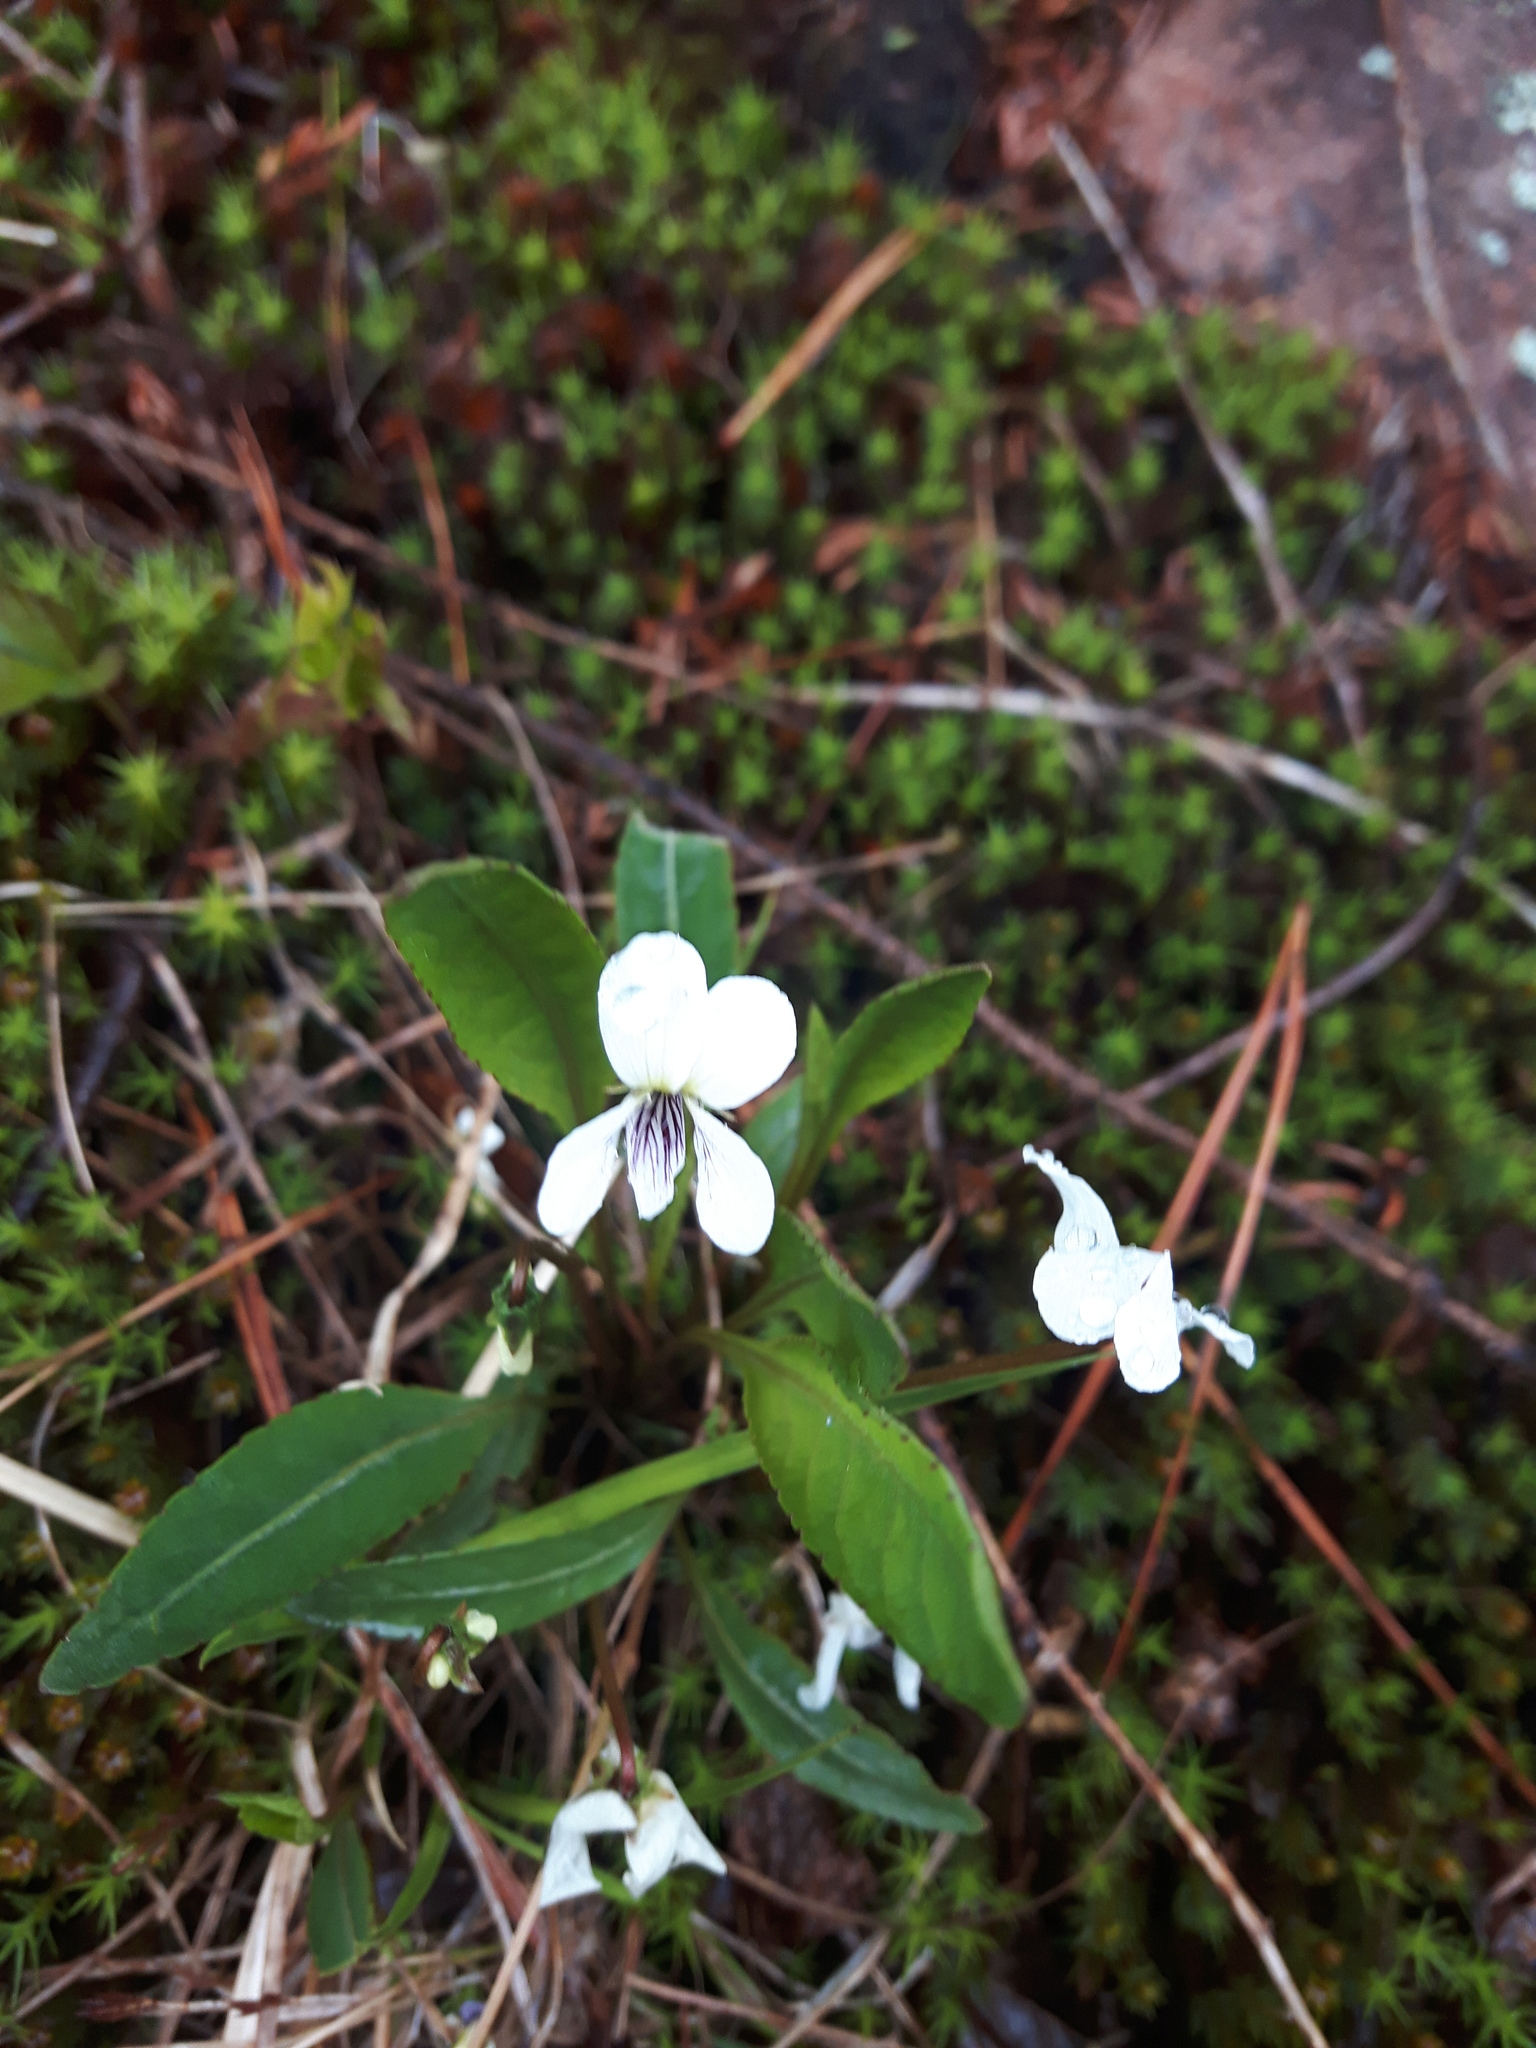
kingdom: Plantae
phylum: Tracheophyta
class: Magnoliopsida
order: Malpighiales
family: Violaceae
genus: Viola
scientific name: Viola lanceolata
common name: Bog white violet
